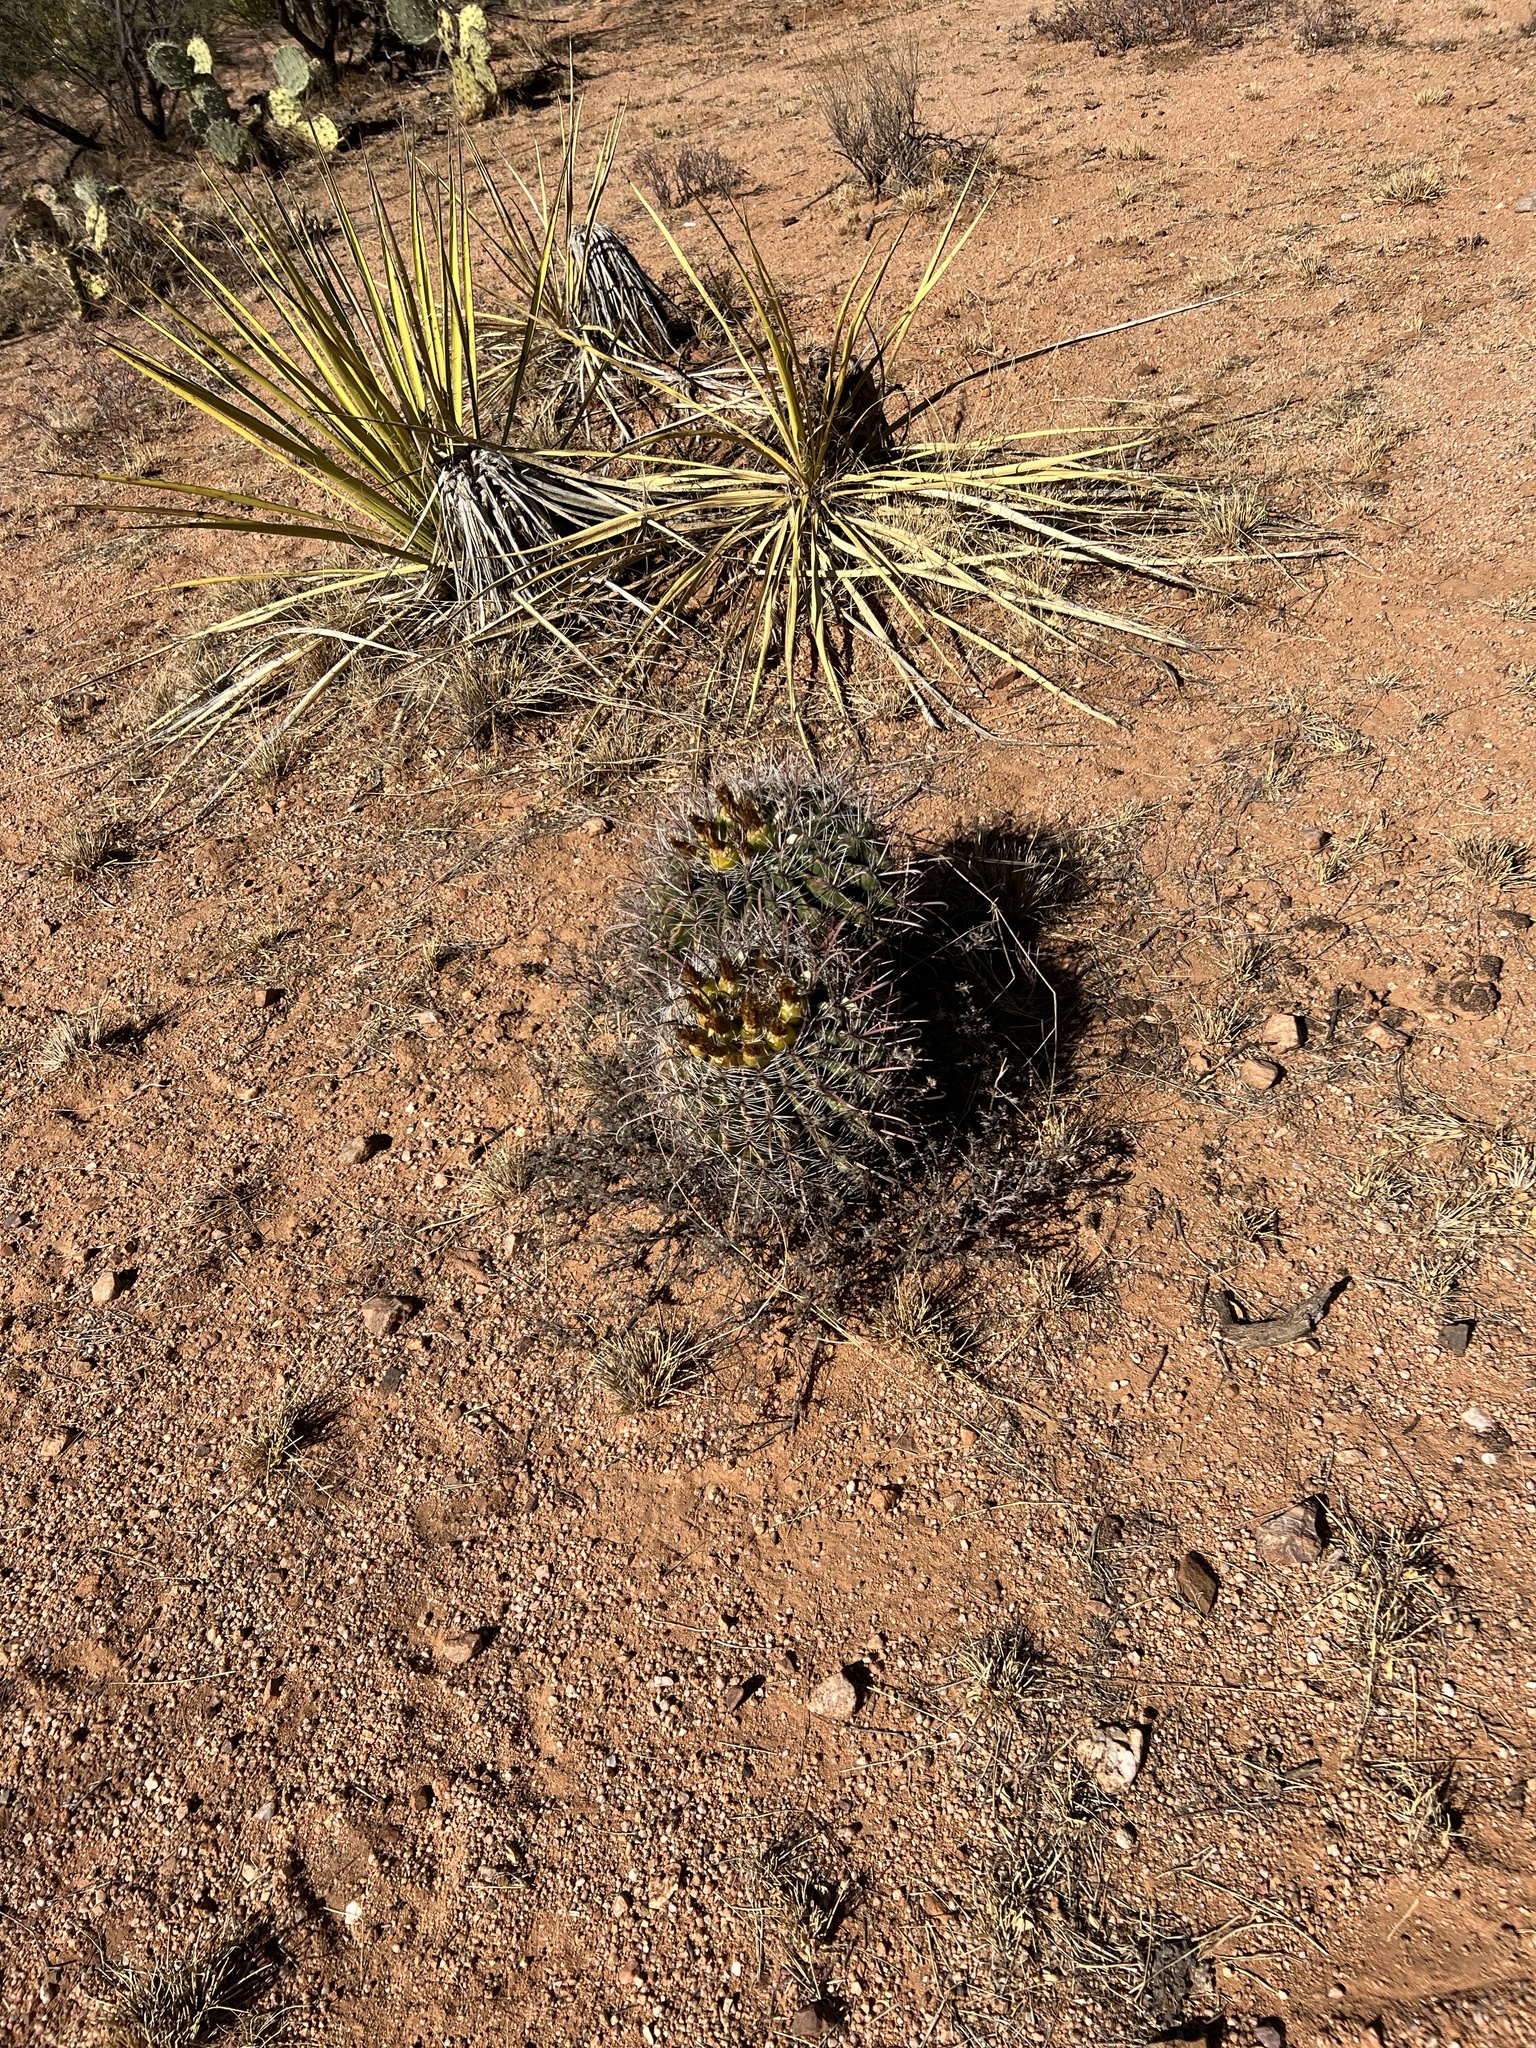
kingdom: Plantae
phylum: Tracheophyta
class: Magnoliopsida
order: Caryophyllales
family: Cactaceae
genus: Ferocactus
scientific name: Ferocactus wislizeni
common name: Candy barrel cactus
